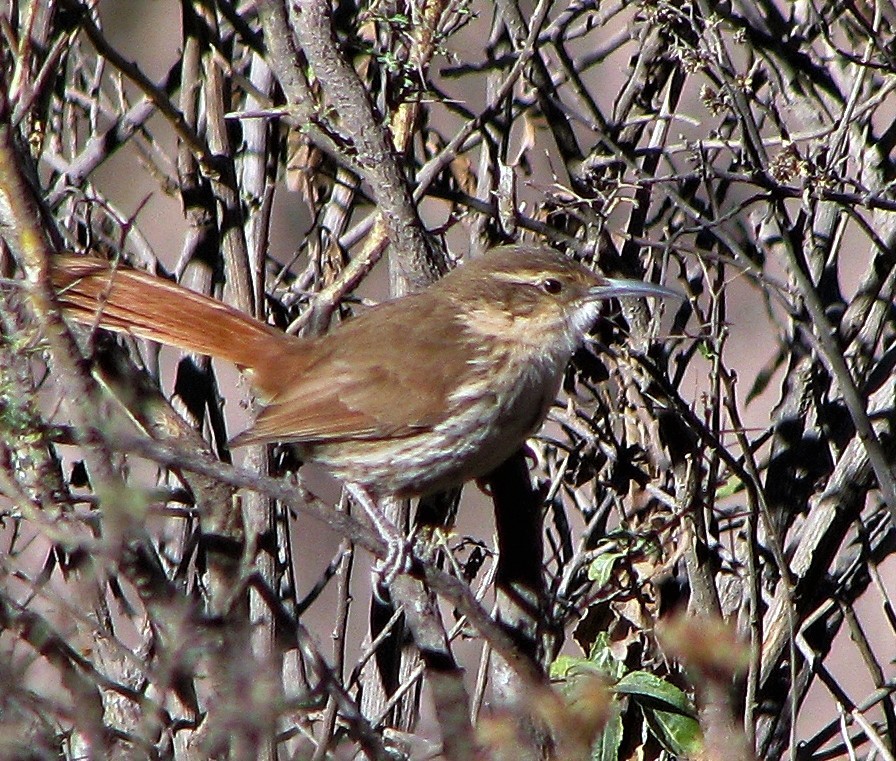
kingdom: Animalia
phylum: Chordata
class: Aves
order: Passeriformes
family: Furnariidae
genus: Upucerthia
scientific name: Upucerthia andaecola
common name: Rock earthcreeper
